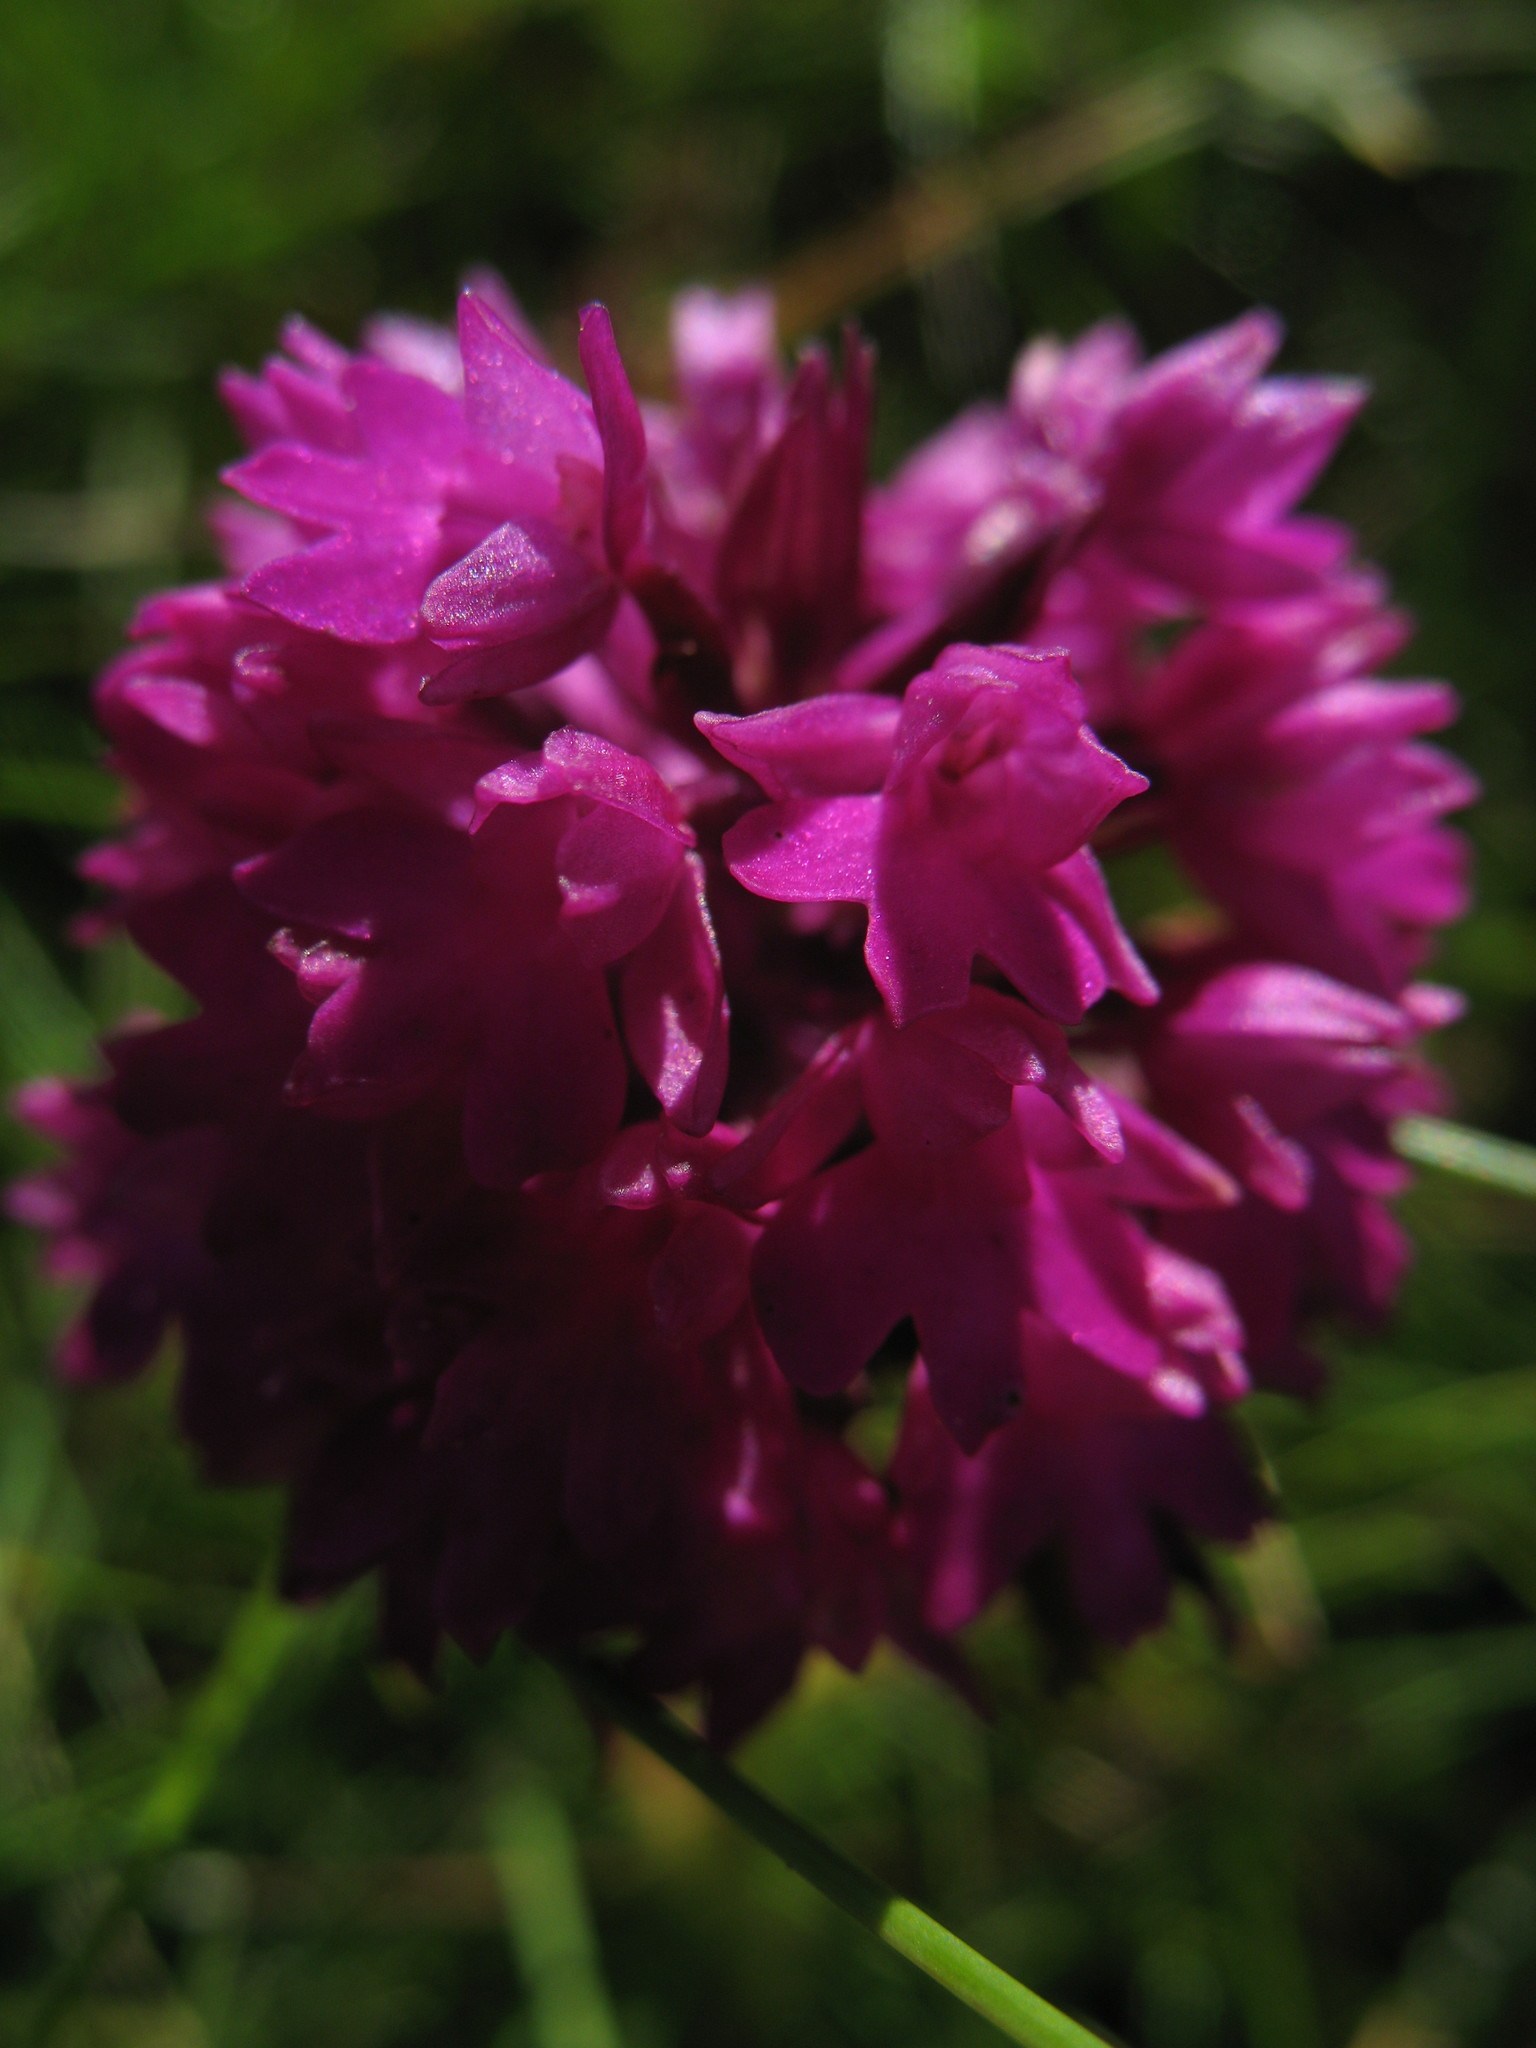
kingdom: Plantae
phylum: Tracheophyta
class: Liliopsida
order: Asparagales
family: Orchidaceae
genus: Anacamptis
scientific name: Anacamptis pyramidalis
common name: Pyramidal orchid
